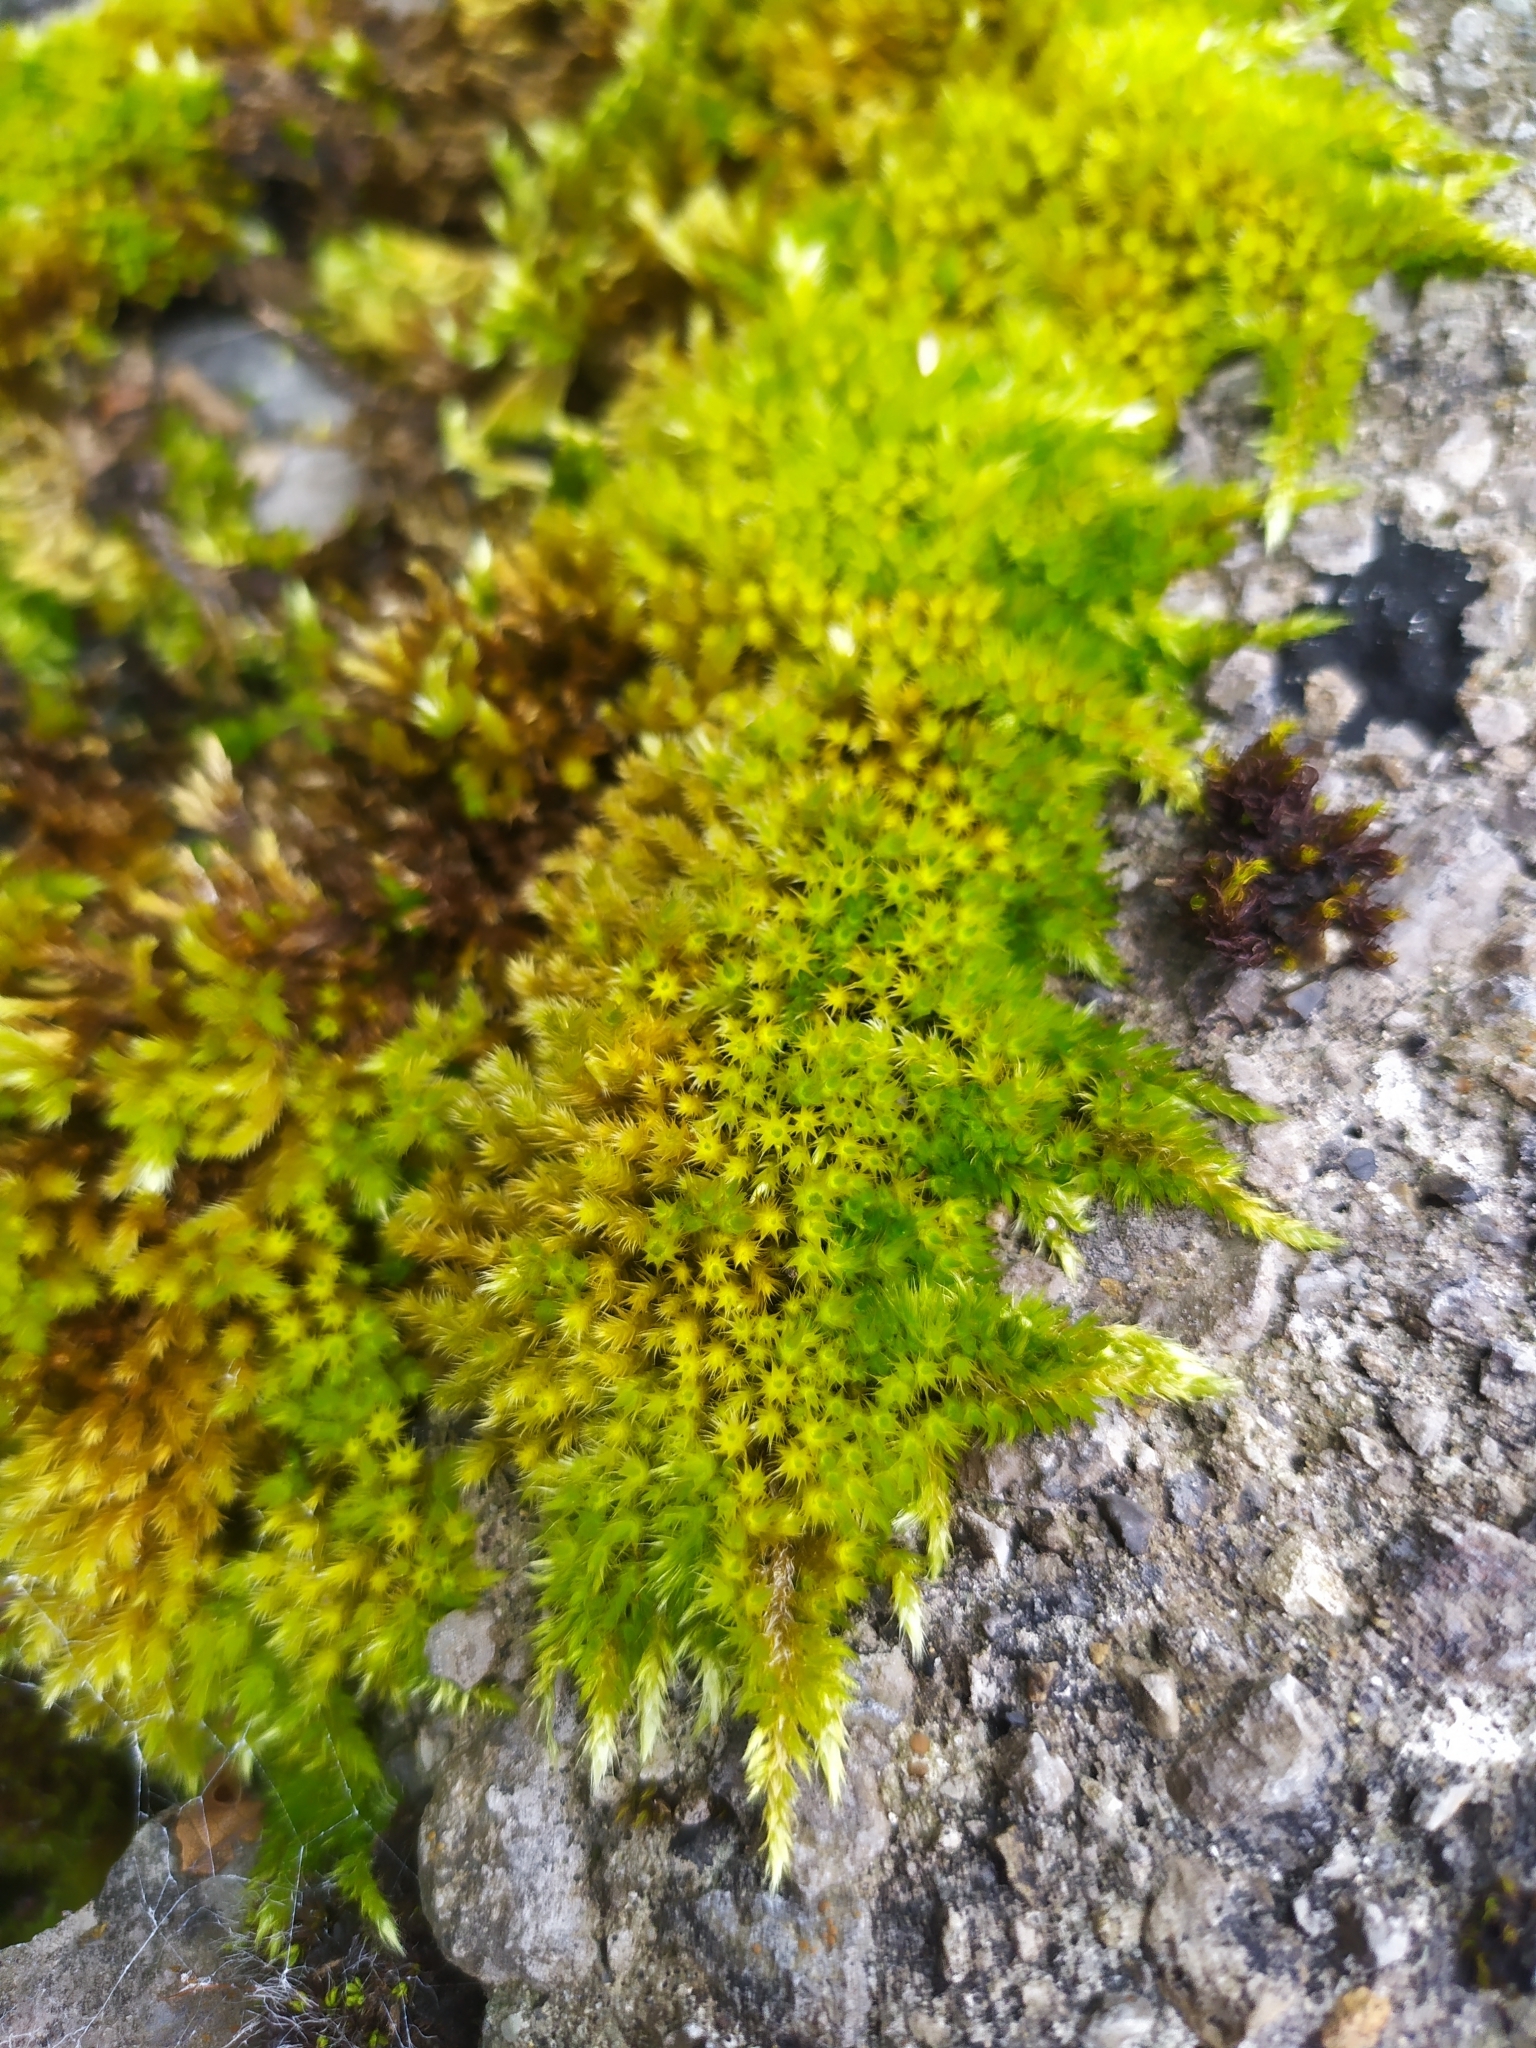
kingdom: Plantae
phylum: Bryophyta
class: Bryopsida
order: Hypnales
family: Brachytheciaceae
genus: Homalothecium
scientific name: Homalothecium sericeum
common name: Silky wall feather-moss
